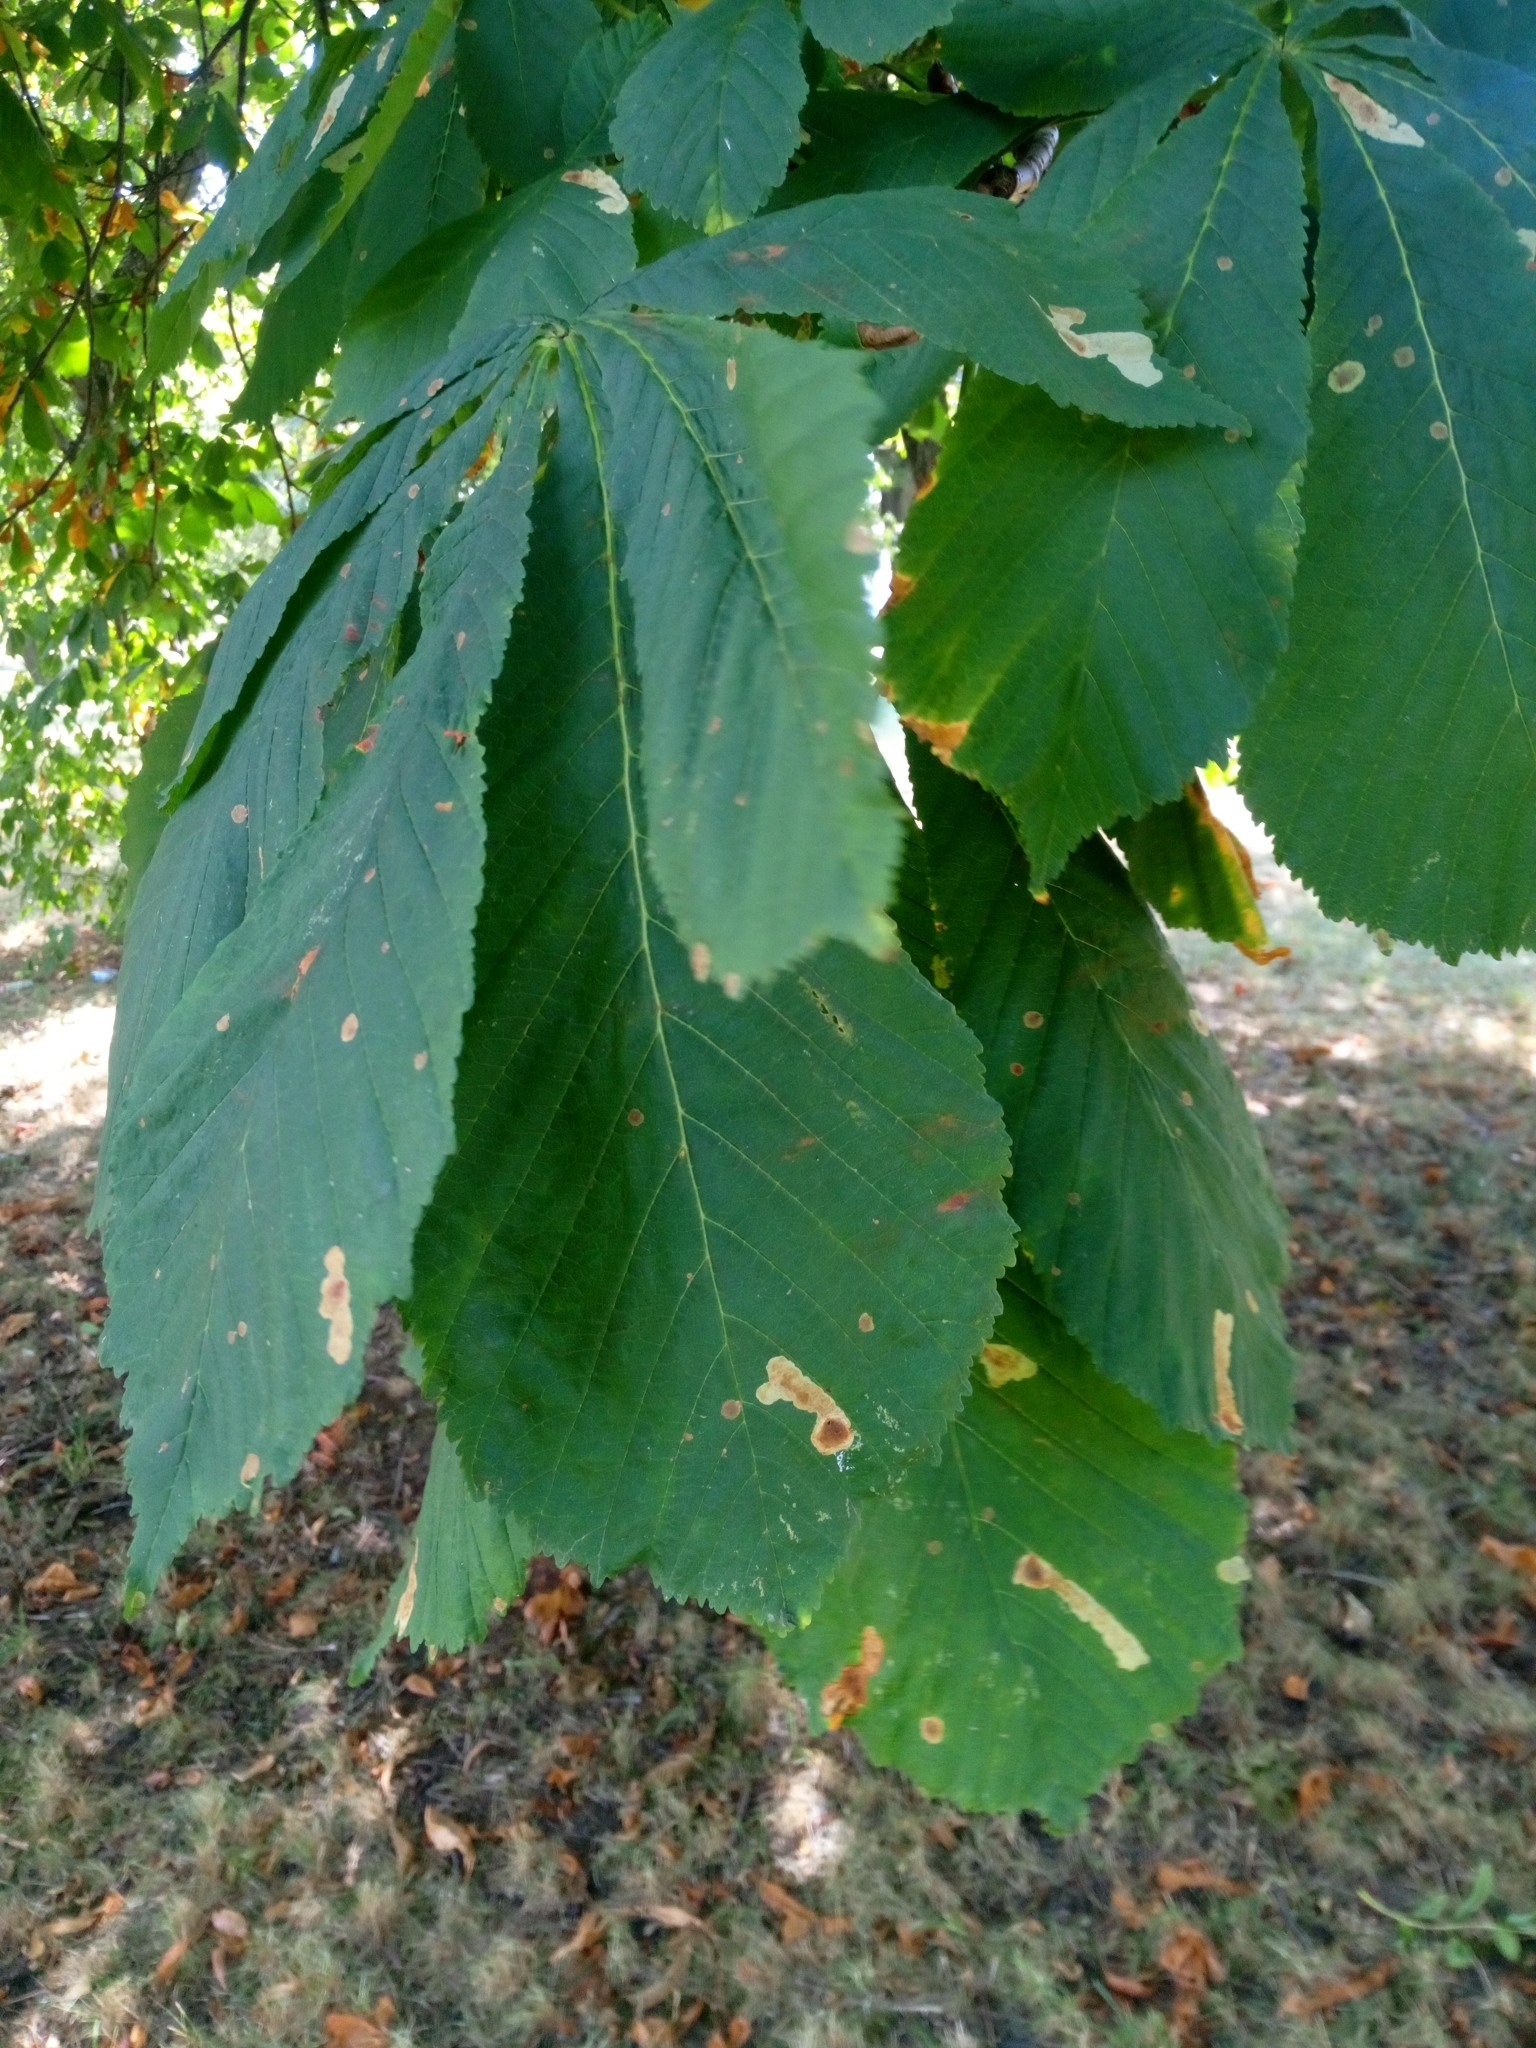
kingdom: Animalia
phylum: Arthropoda
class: Insecta
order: Lepidoptera
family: Gracillariidae
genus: Cameraria
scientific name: Cameraria ohridella
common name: Horse-chestnut leaf-miner
